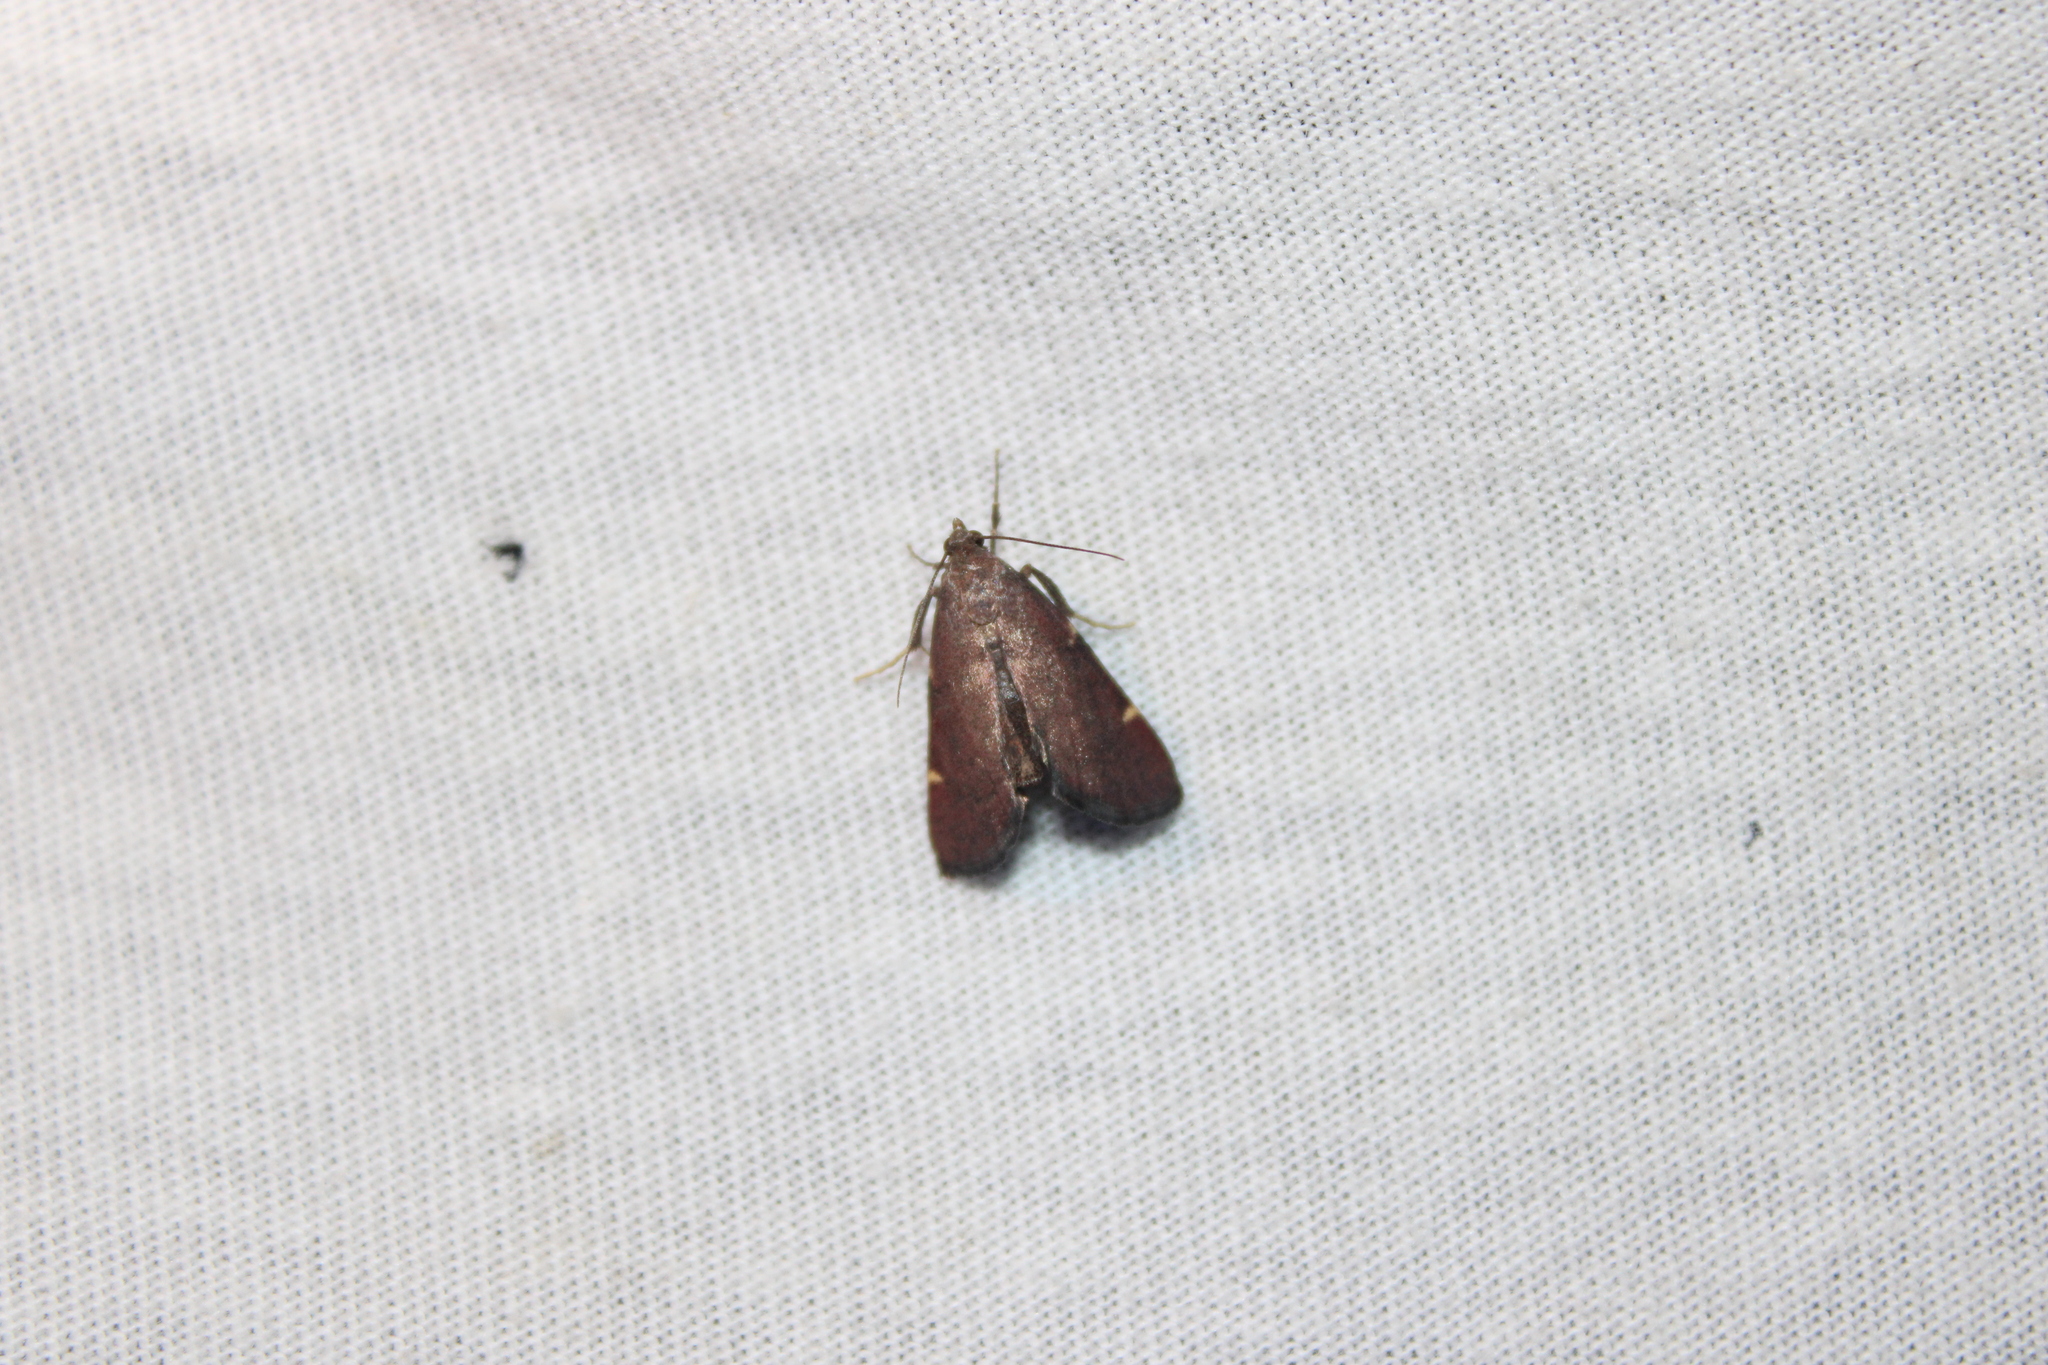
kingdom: Animalia
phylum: Arthropoda
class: Insecta
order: Lepidoptera
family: Pyralidae
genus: Hypsopygia
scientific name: Hypsopygia olinalis
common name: Yellow-fringed dolichomia moth
